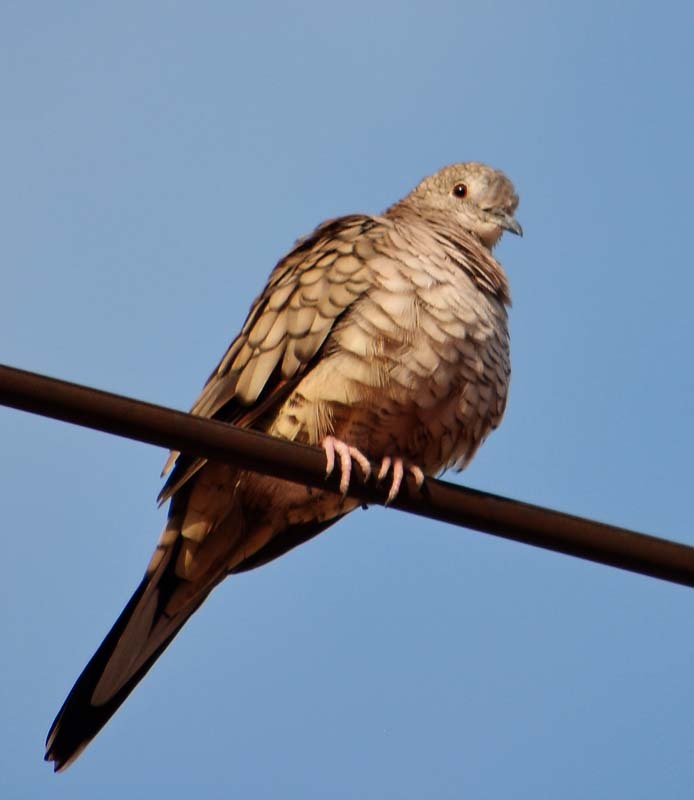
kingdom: Animalia
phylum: Chordata
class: Aves
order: Columbiformes
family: Columbidae
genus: Columbina
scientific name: Columbina inca
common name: Inca dove
